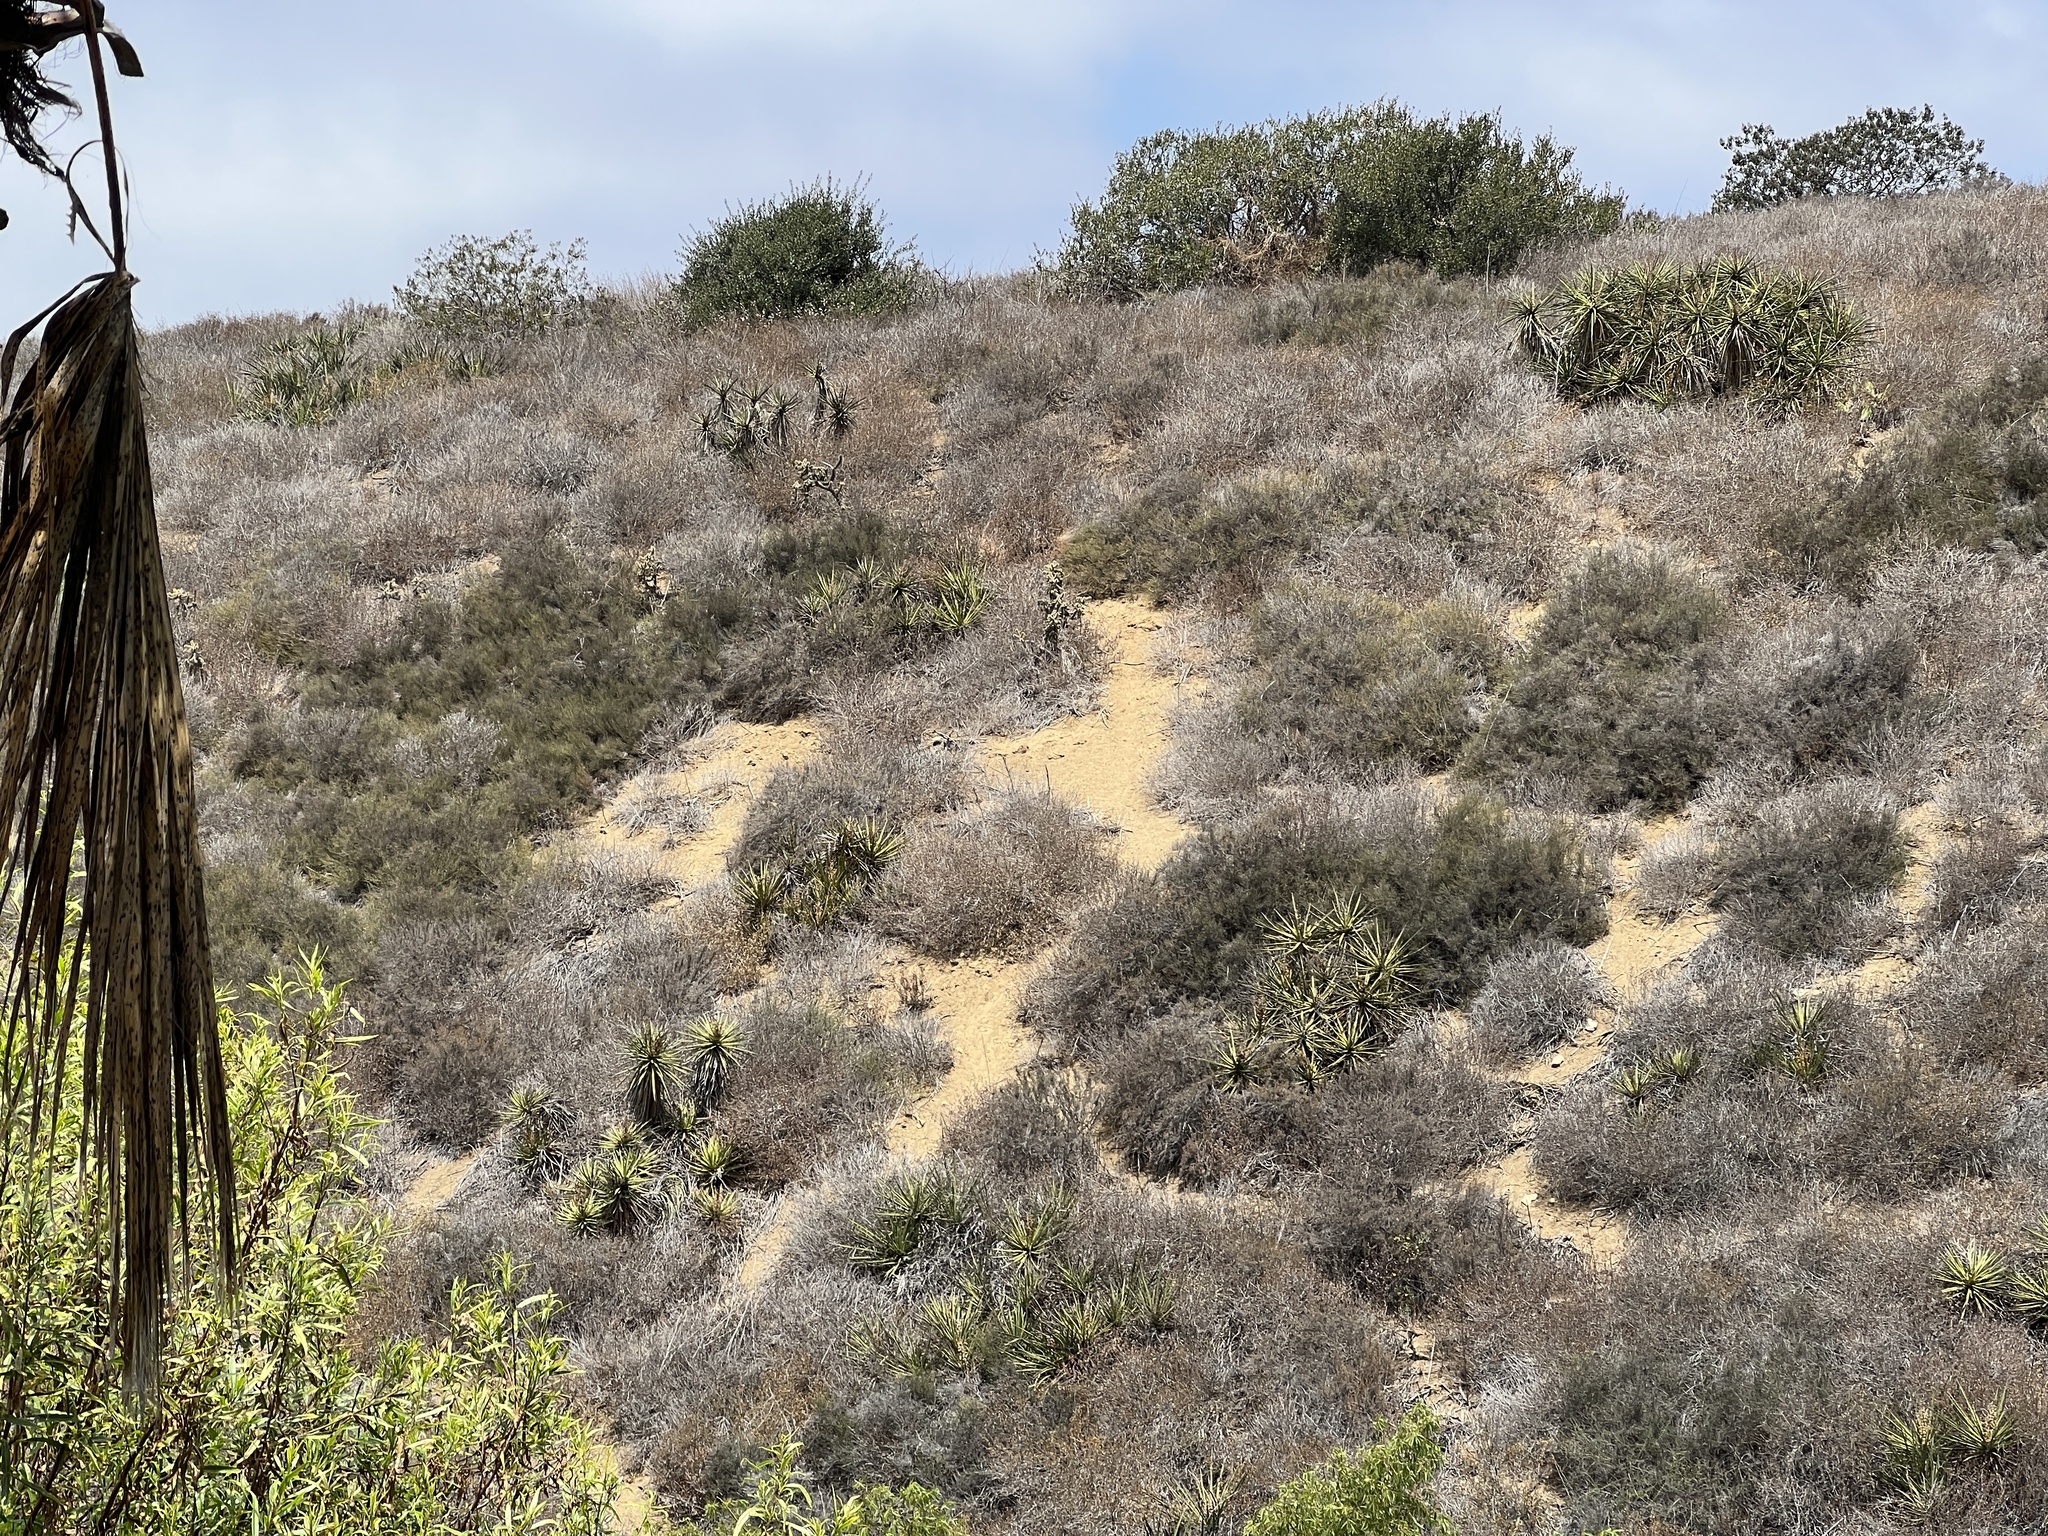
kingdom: Plantae
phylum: Tracheophyta
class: Liliopsida
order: Asparagales
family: Asparagaceae
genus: Yucca
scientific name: Yucca schidigera
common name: Mojave yucca
